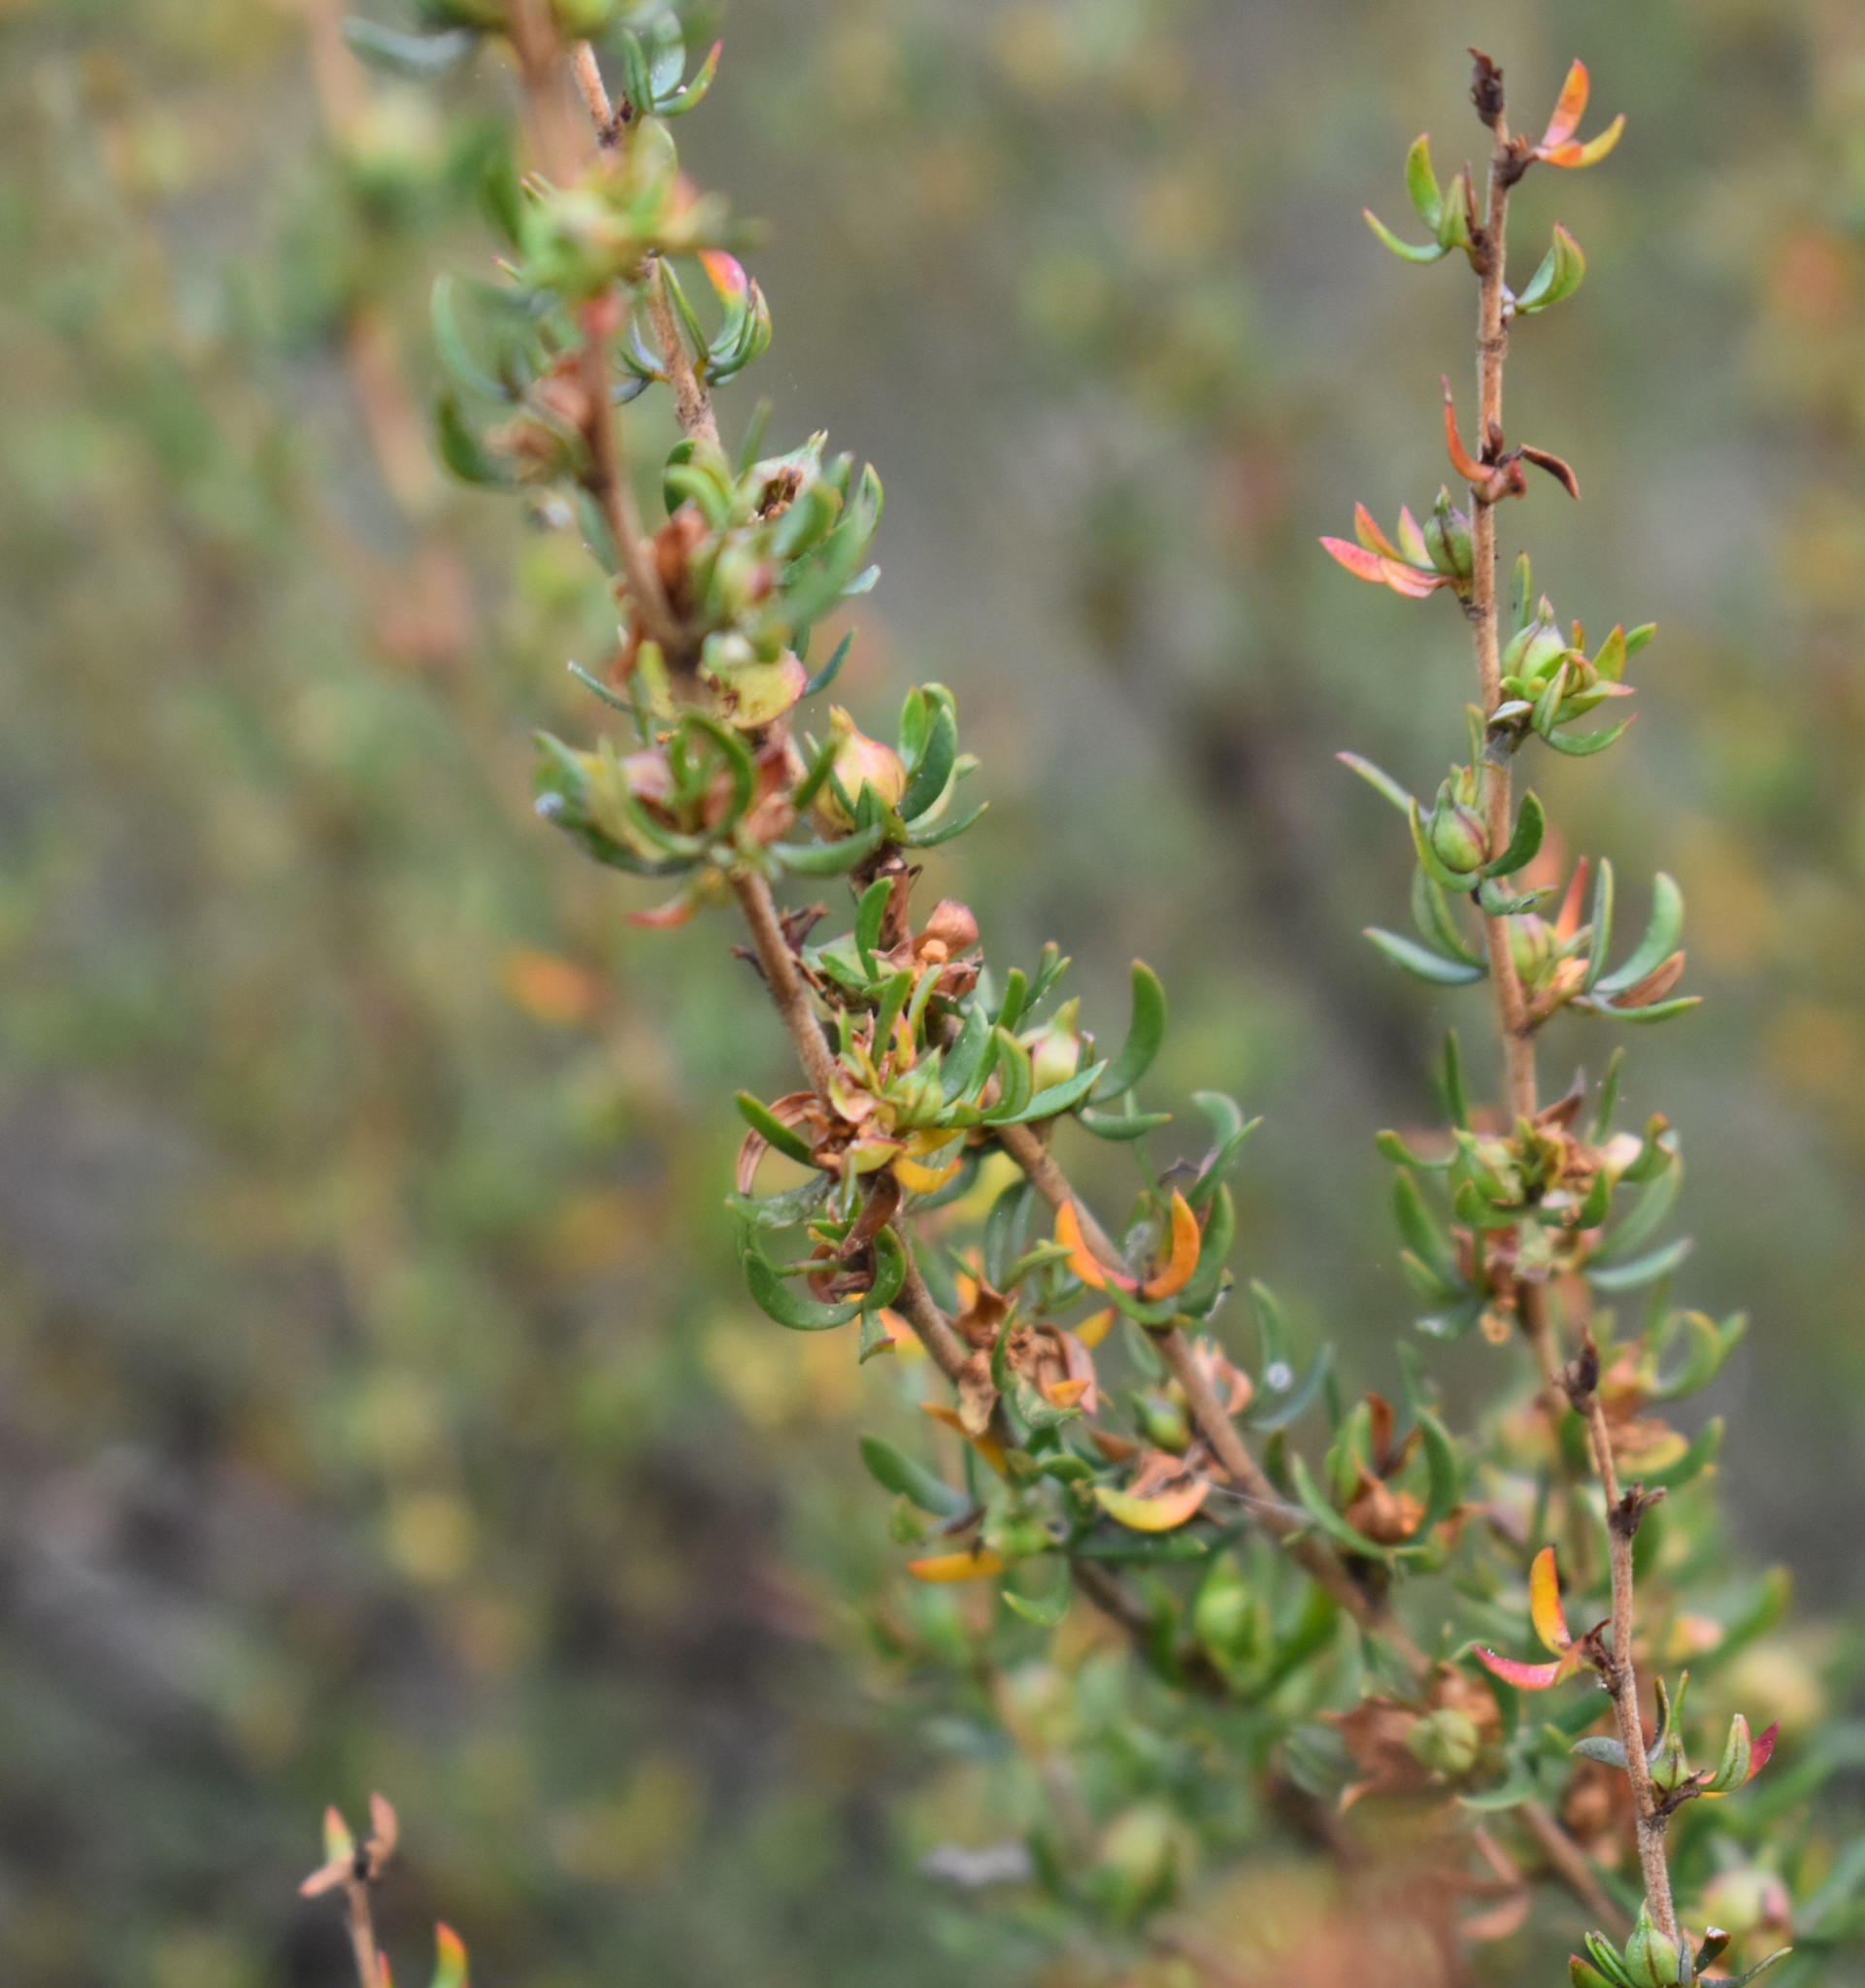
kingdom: Plantae
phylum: Tracheophyta
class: Magnoliopsida
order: Rosales
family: Rosaceae
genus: Cliffortia
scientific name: Cliffortia falcata
